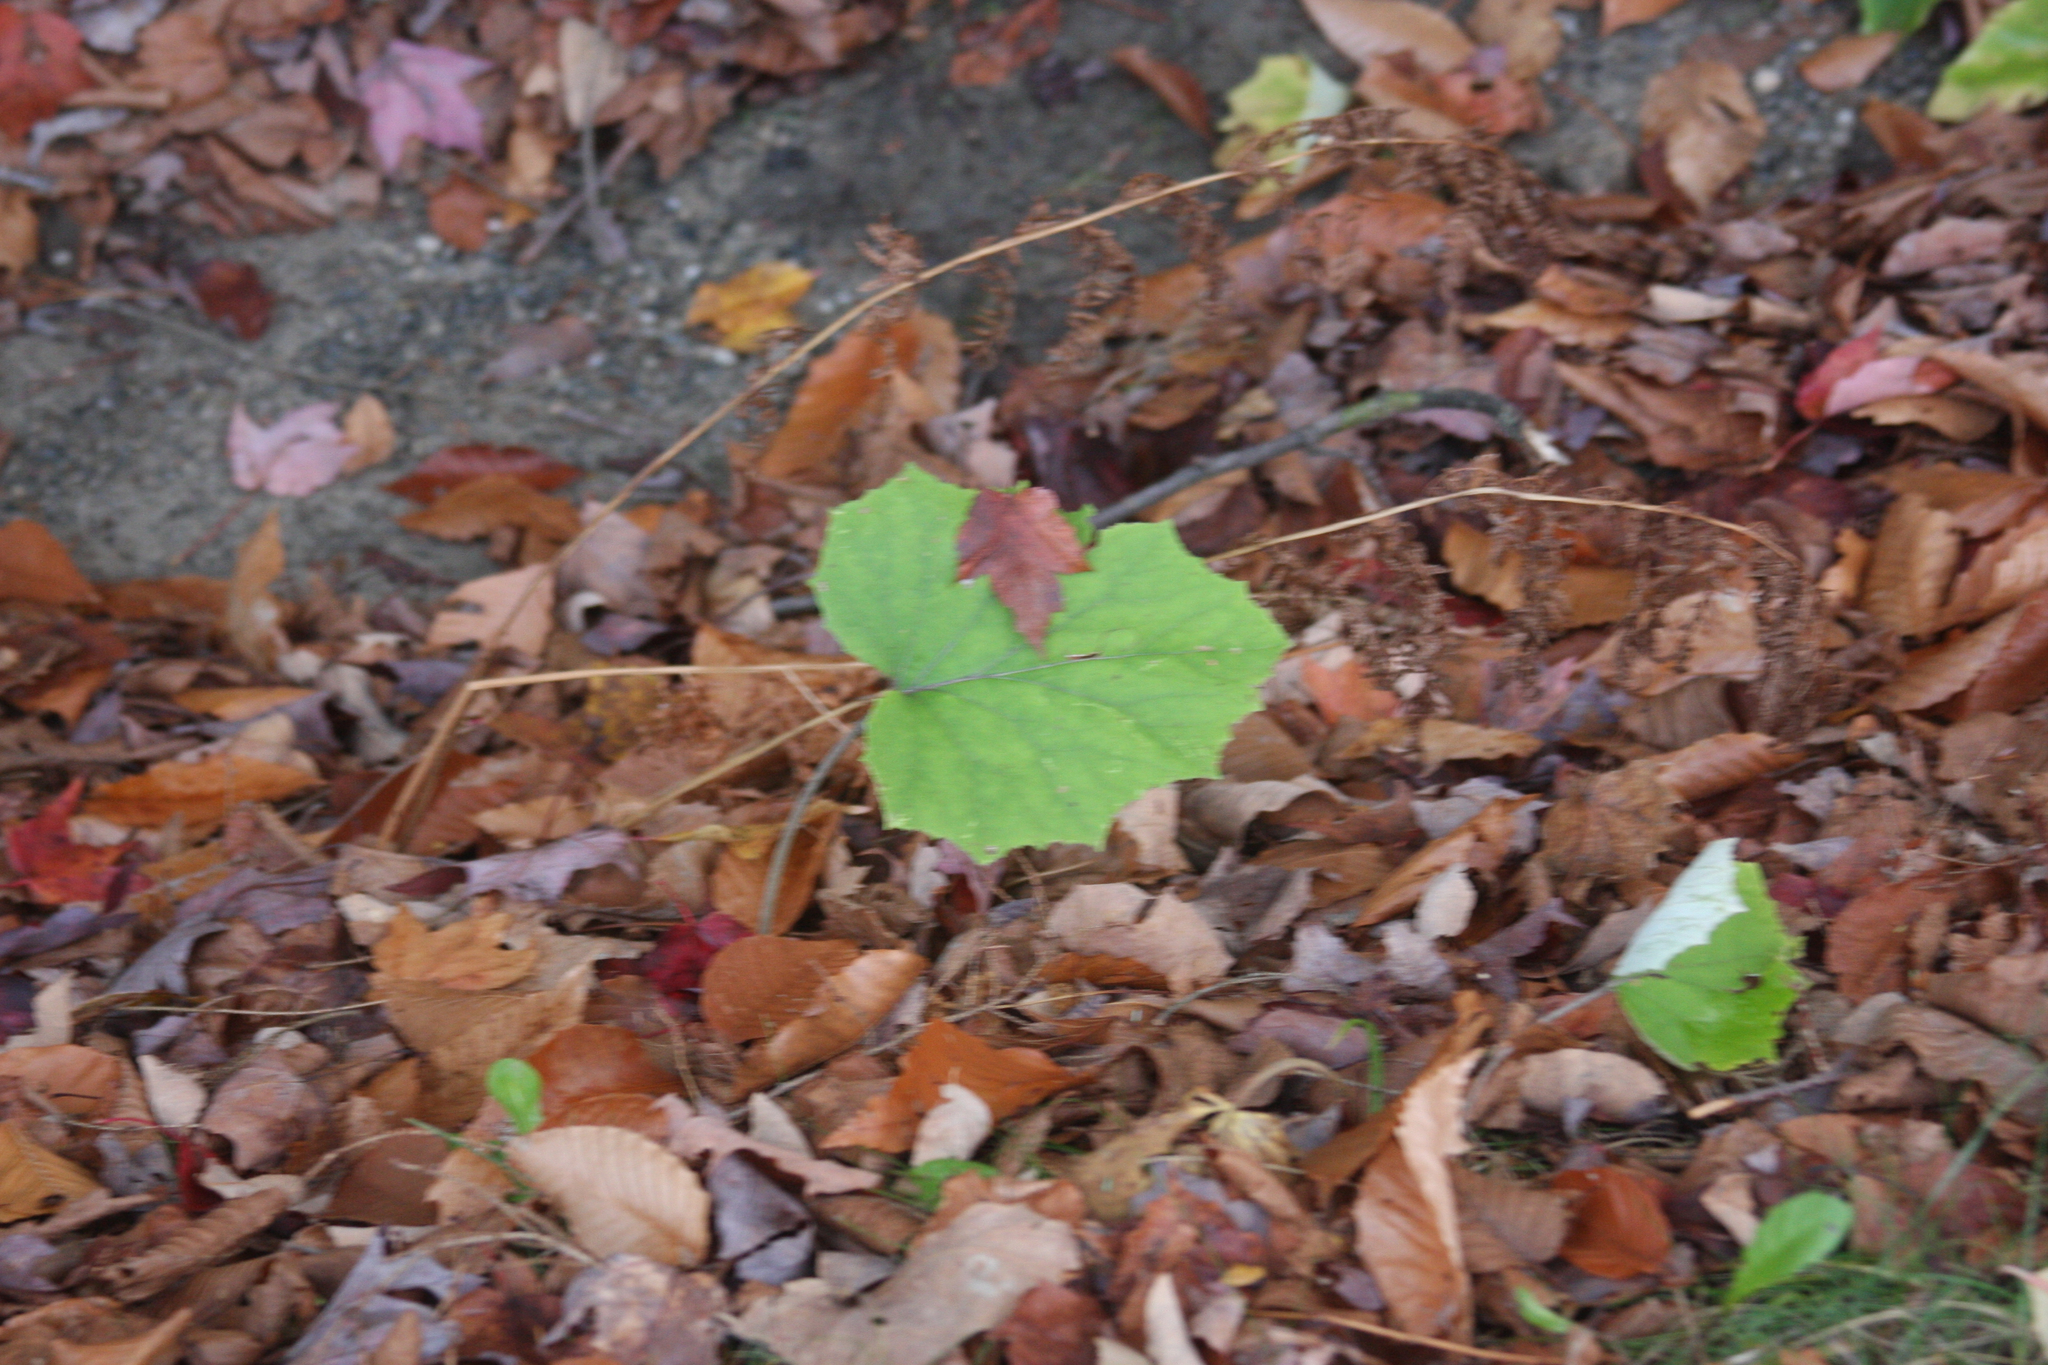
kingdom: Plantae
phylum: Tracheophyta
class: Magnoliopsida
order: Asterales
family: Asteraceae
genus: Tussilago
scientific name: Tussilago farfara
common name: Coltsfoot
